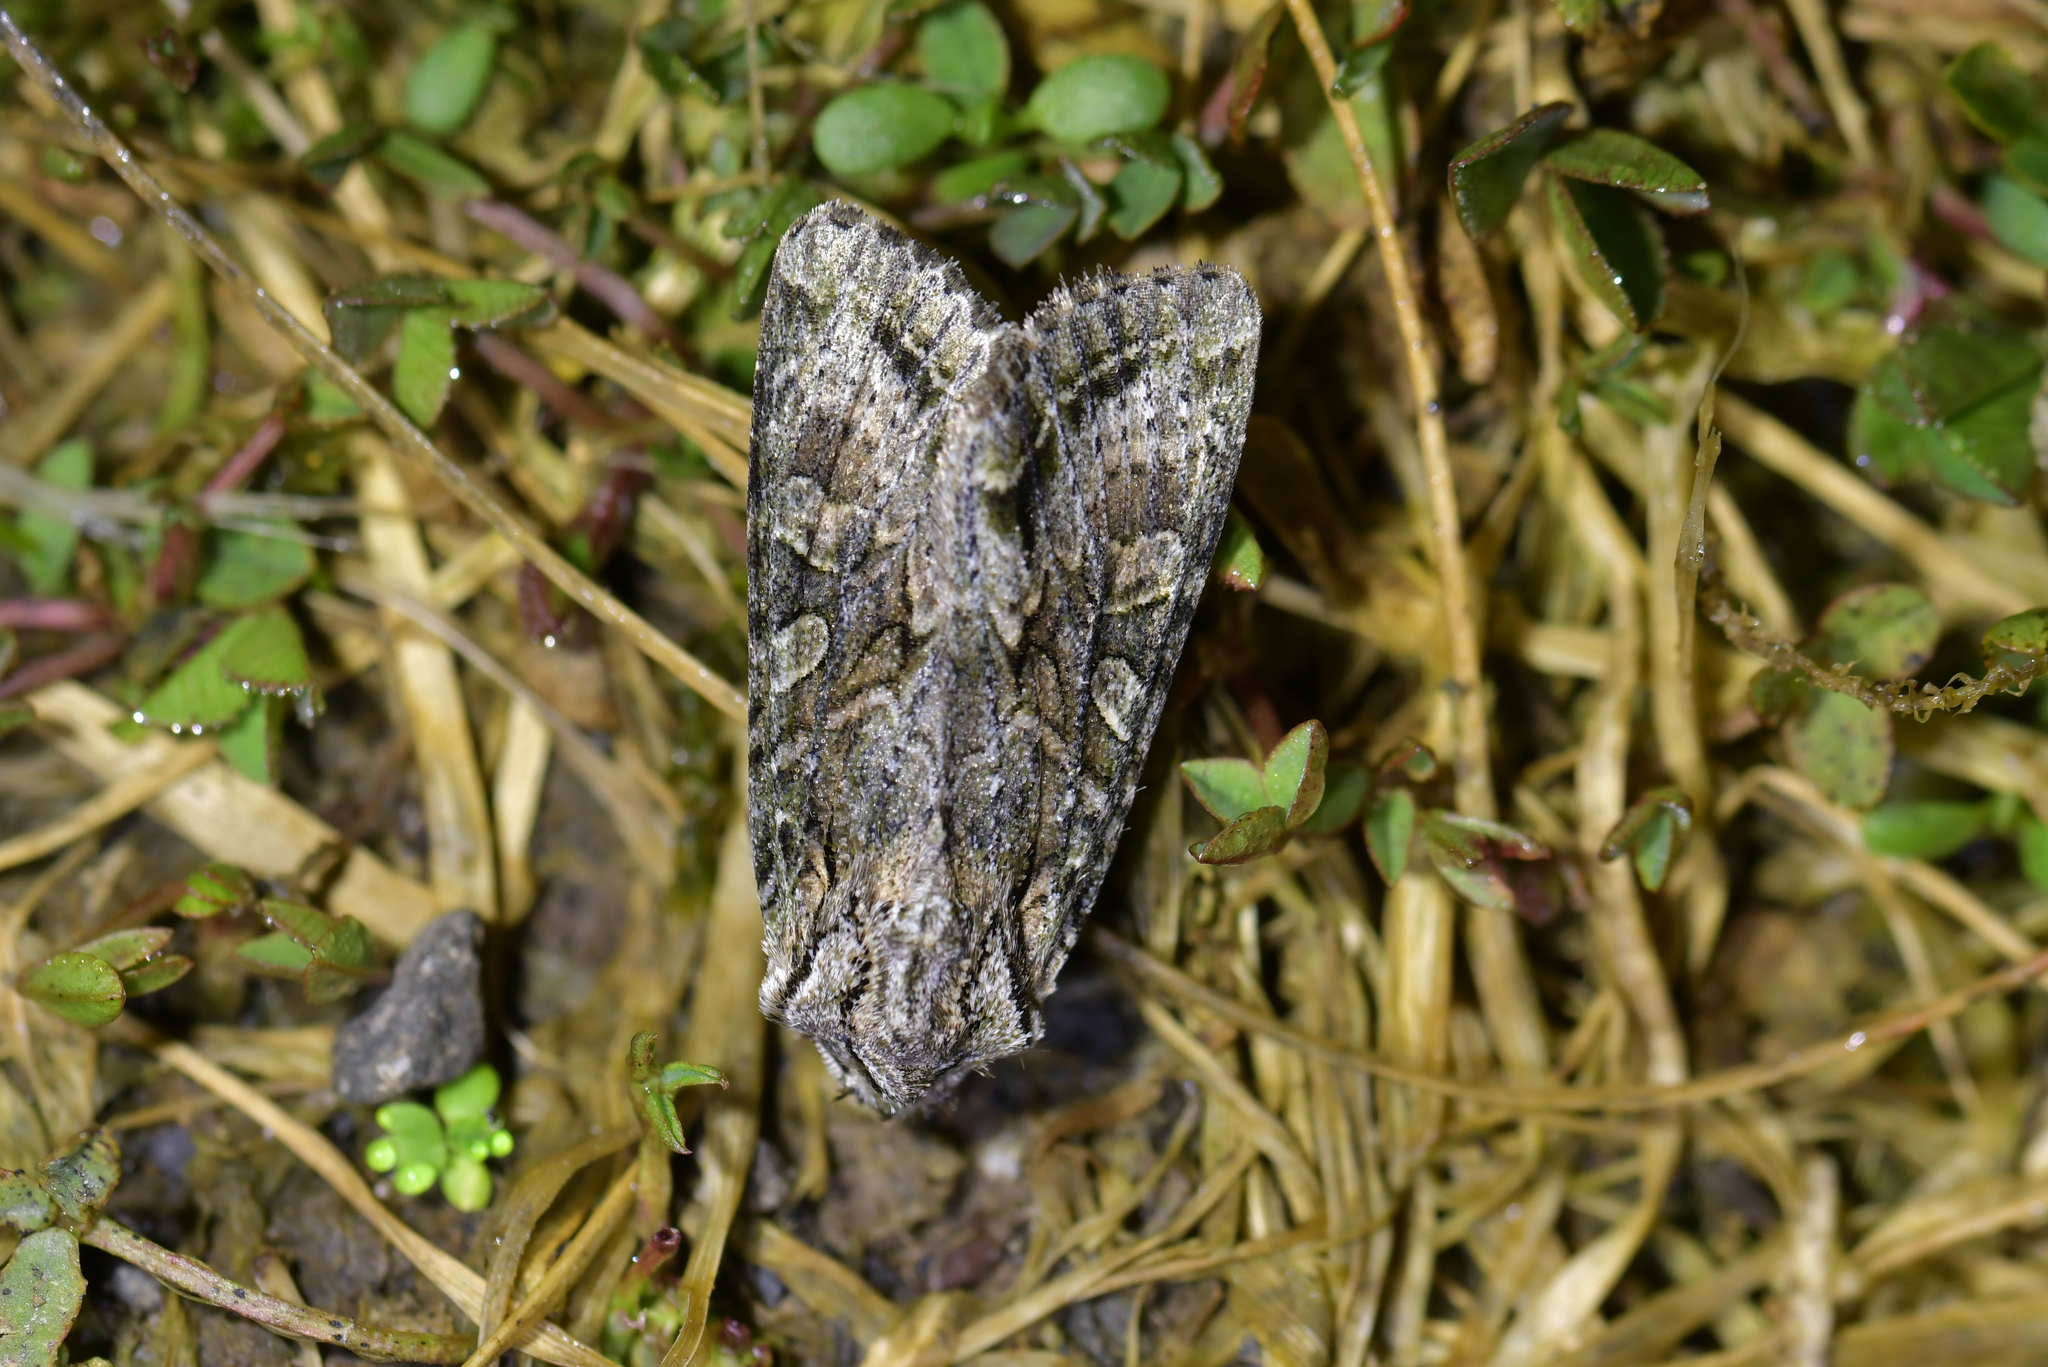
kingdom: Animalia
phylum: Arthropoda
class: Insecta
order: Lepidoptera
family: Noctuidae
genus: Ichneutica
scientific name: Ichneutica mutans
